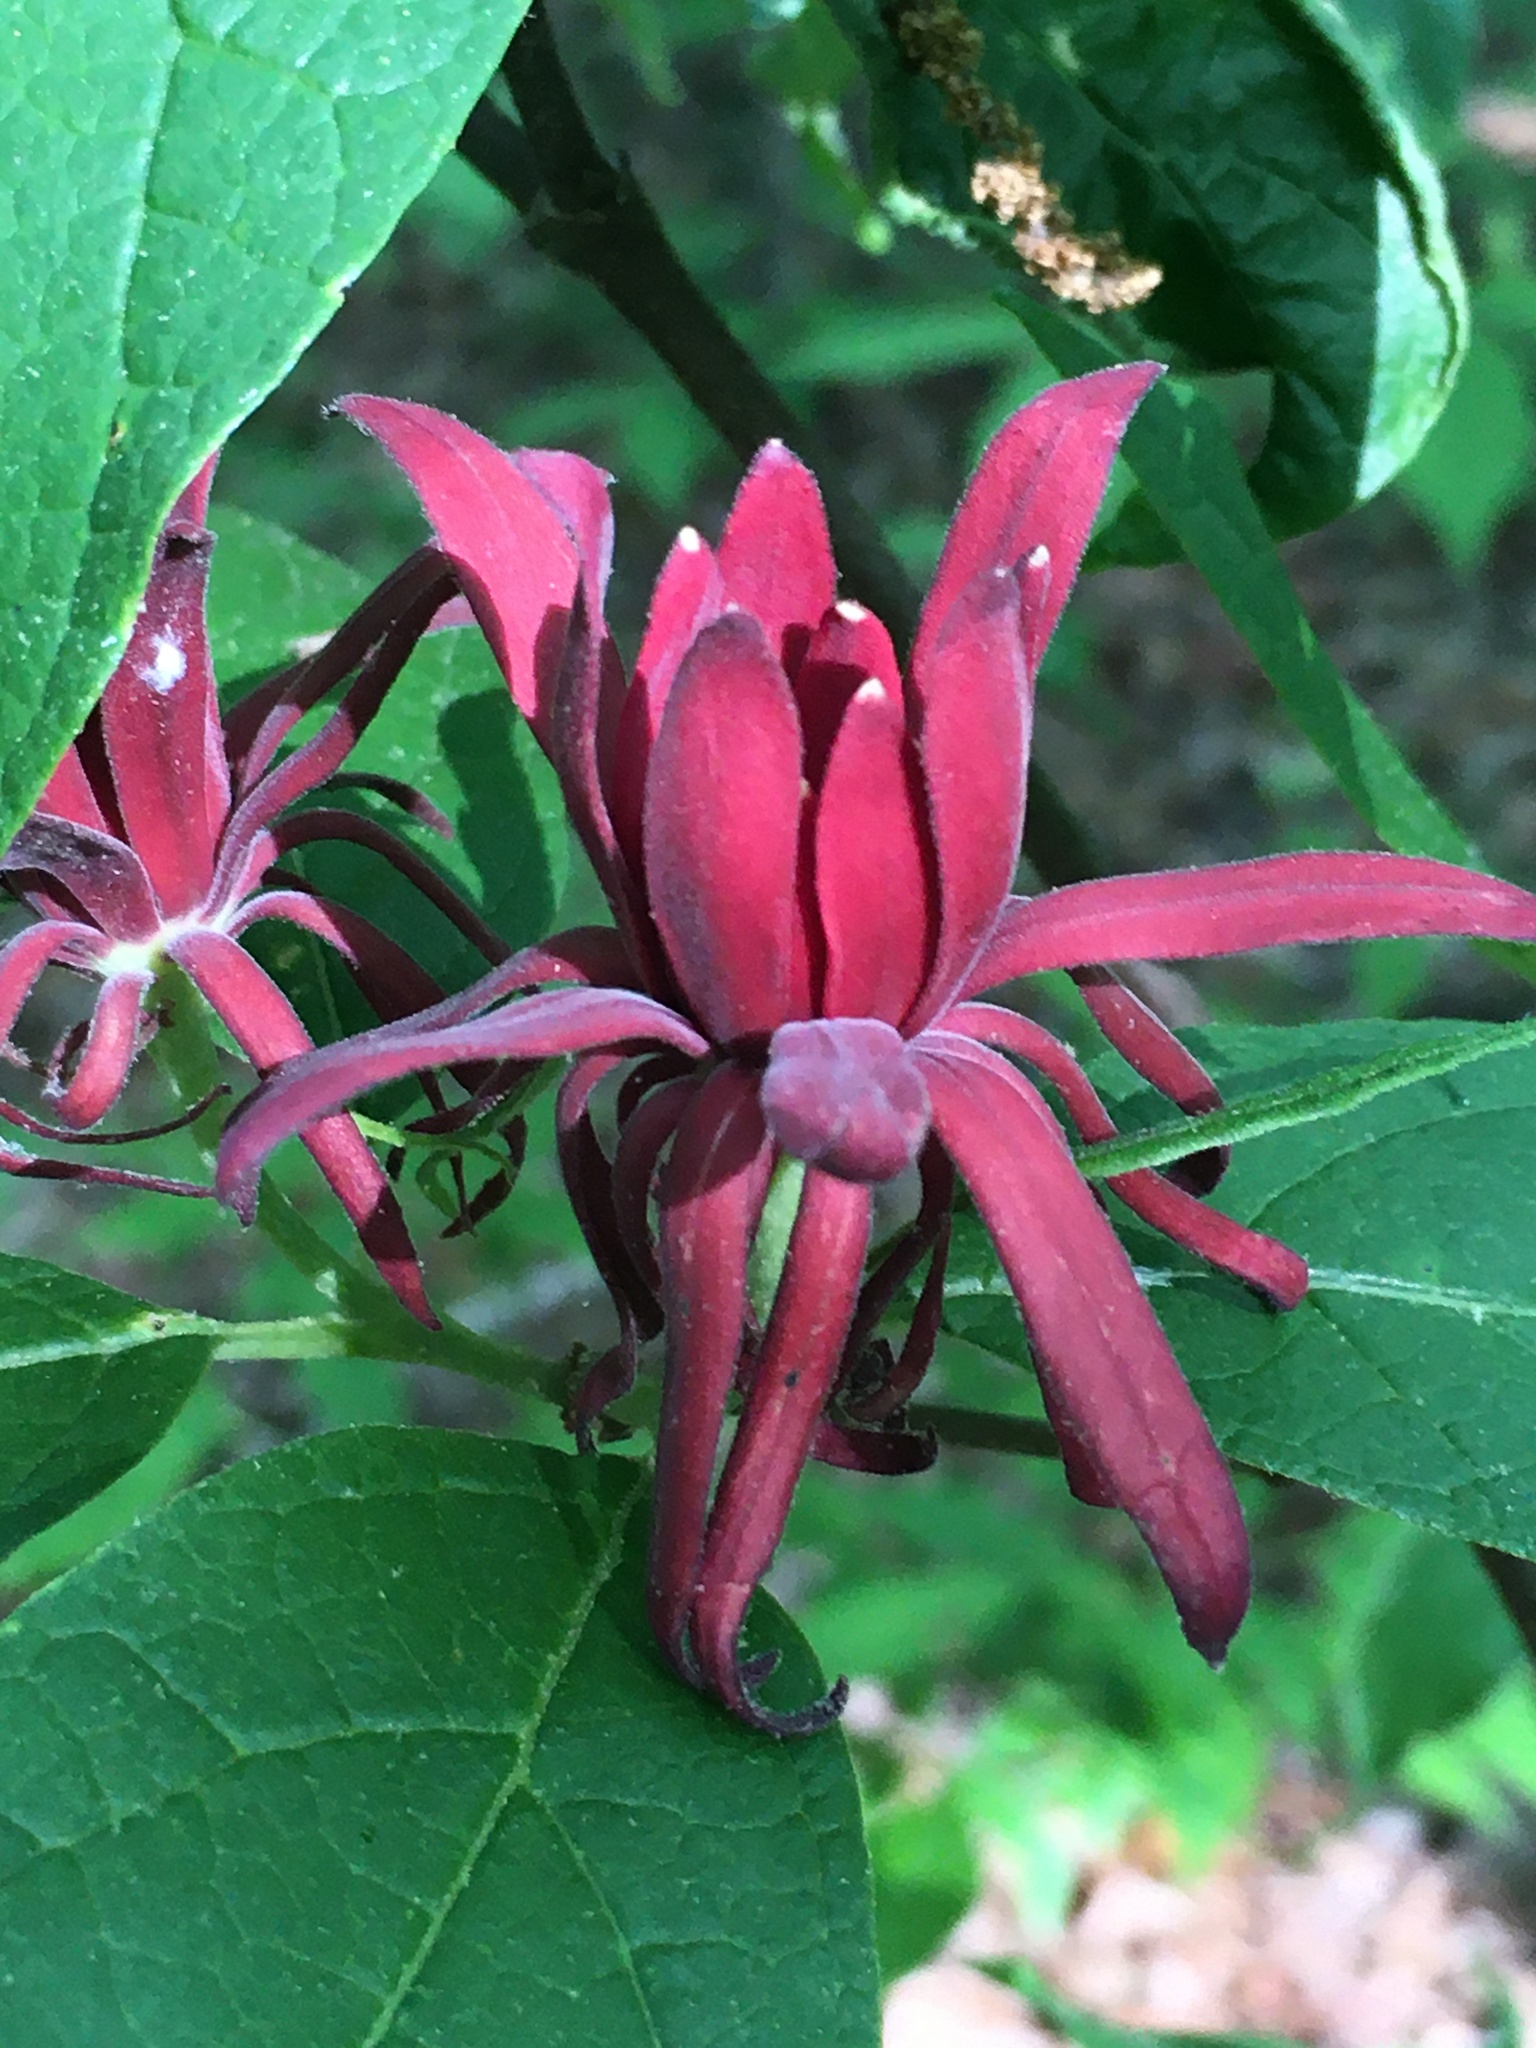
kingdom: Plantae
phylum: Tracheophyta
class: Magnoliopsida
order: Laurales
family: Calycanthaceae
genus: Calycanthus
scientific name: Calycanthus floridus
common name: Carolina-allspice
